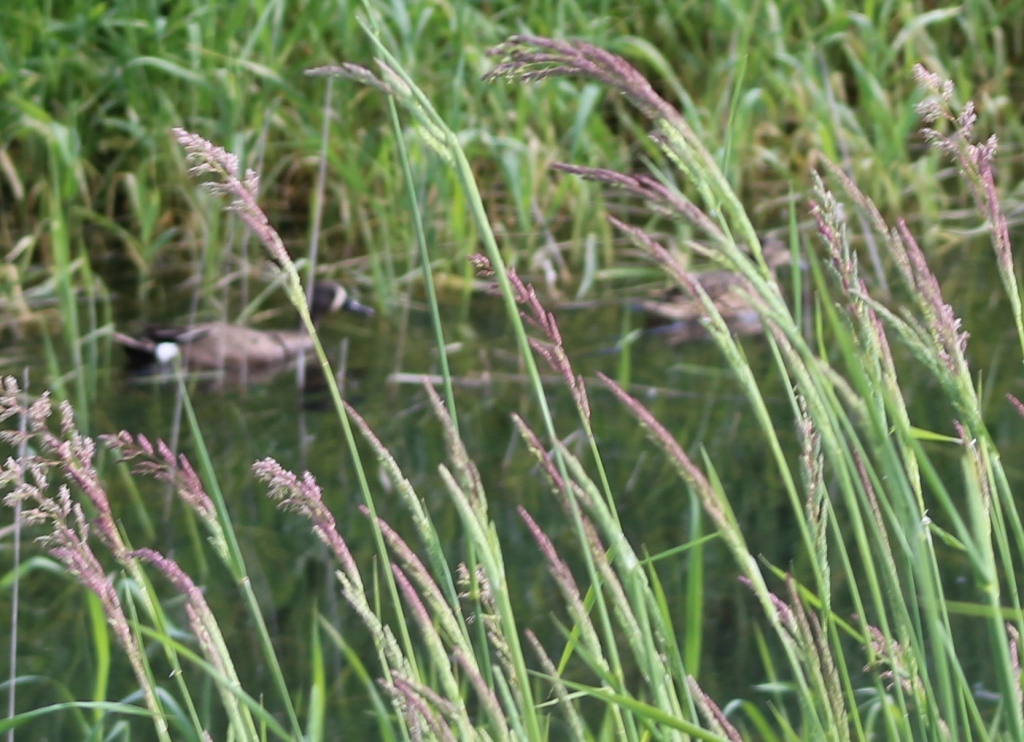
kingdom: Animalia
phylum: Chordata
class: Aves
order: Anseriformes
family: Anatidae
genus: Spatula
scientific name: Spatula discors
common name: Blue-winged teal
